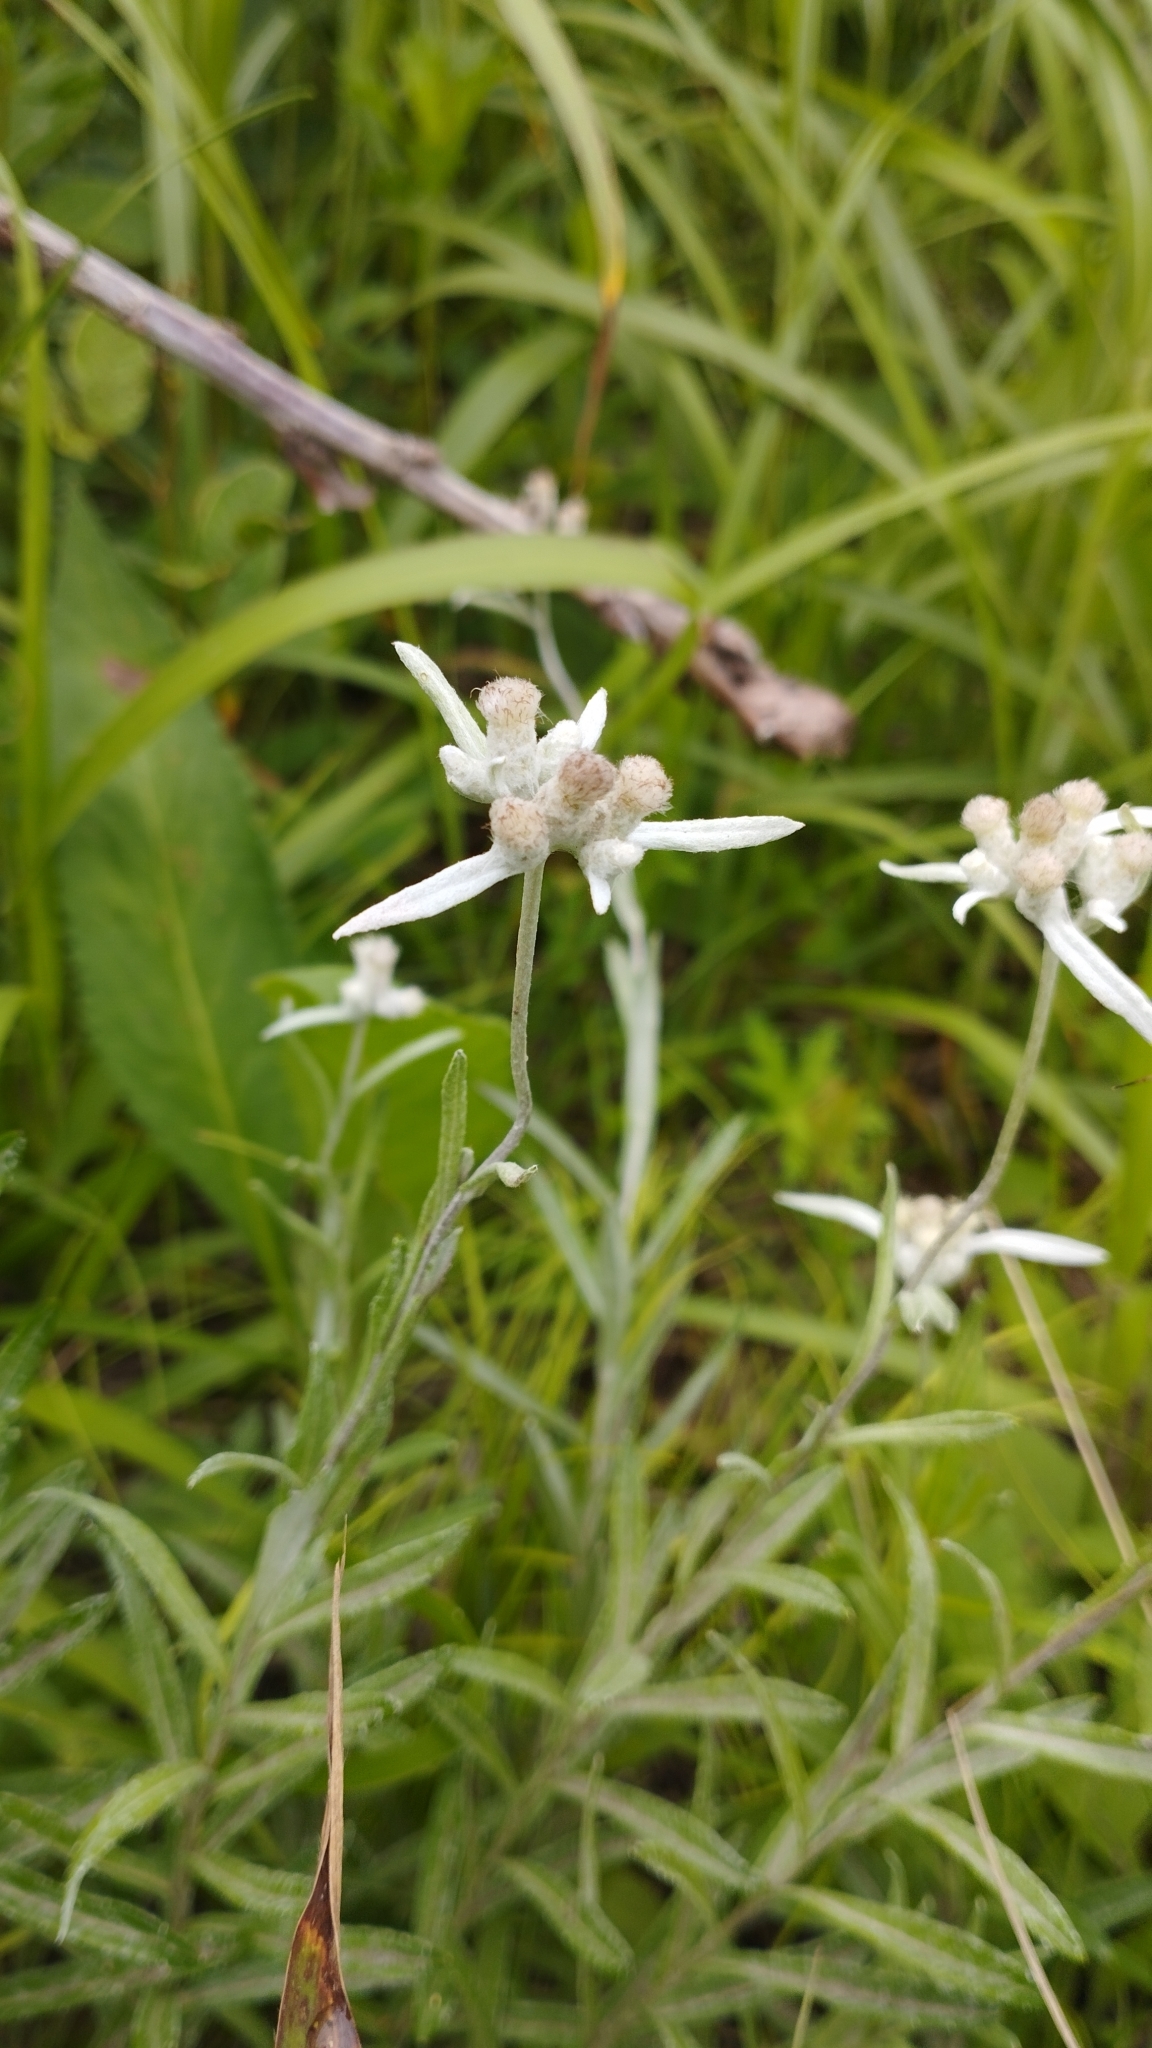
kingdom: Plantae
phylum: Tracheophyta
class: Magnoliopsida
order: Asterales
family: Asteraceae
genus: Leontopodium
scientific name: Leontopodium leontopodioides
